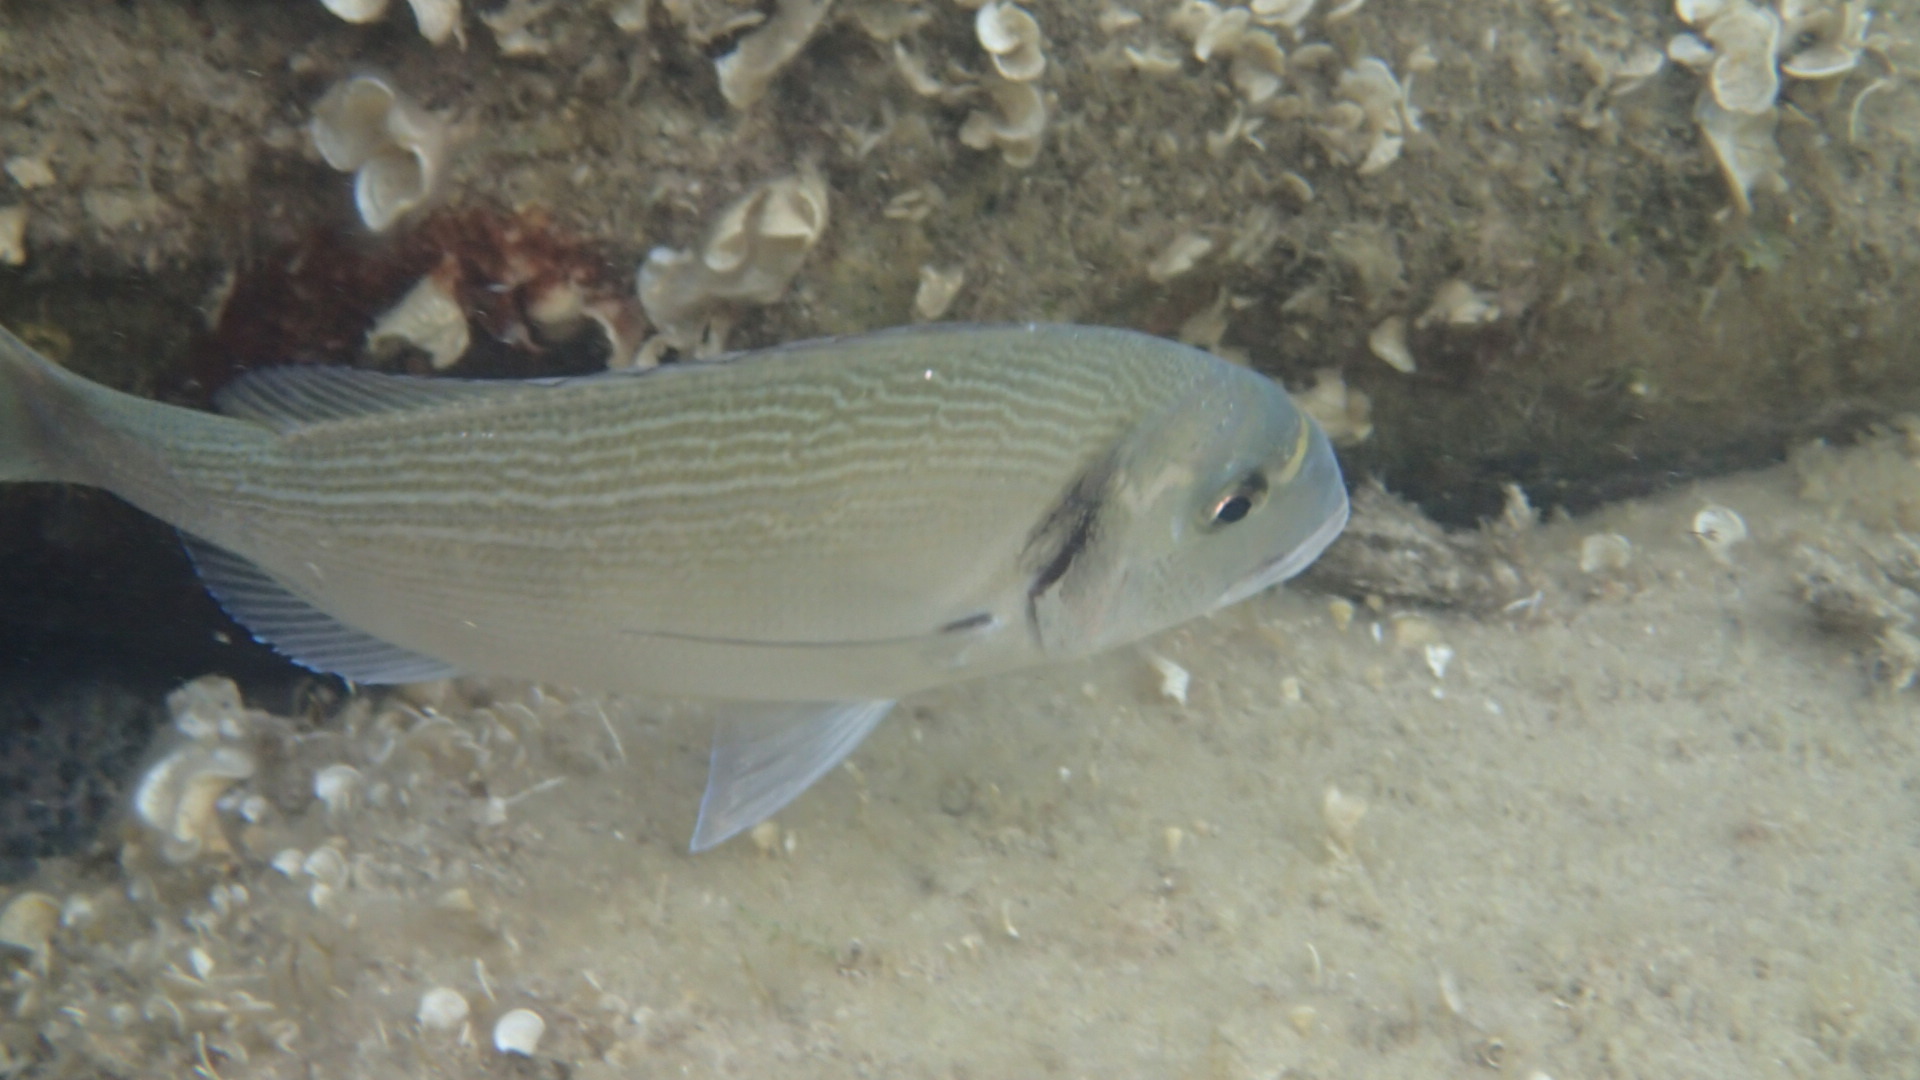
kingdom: Animalia
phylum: Chordata
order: Perciformes
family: Sparidae
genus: Sparus
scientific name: Sparus aurata
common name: Gilthead
